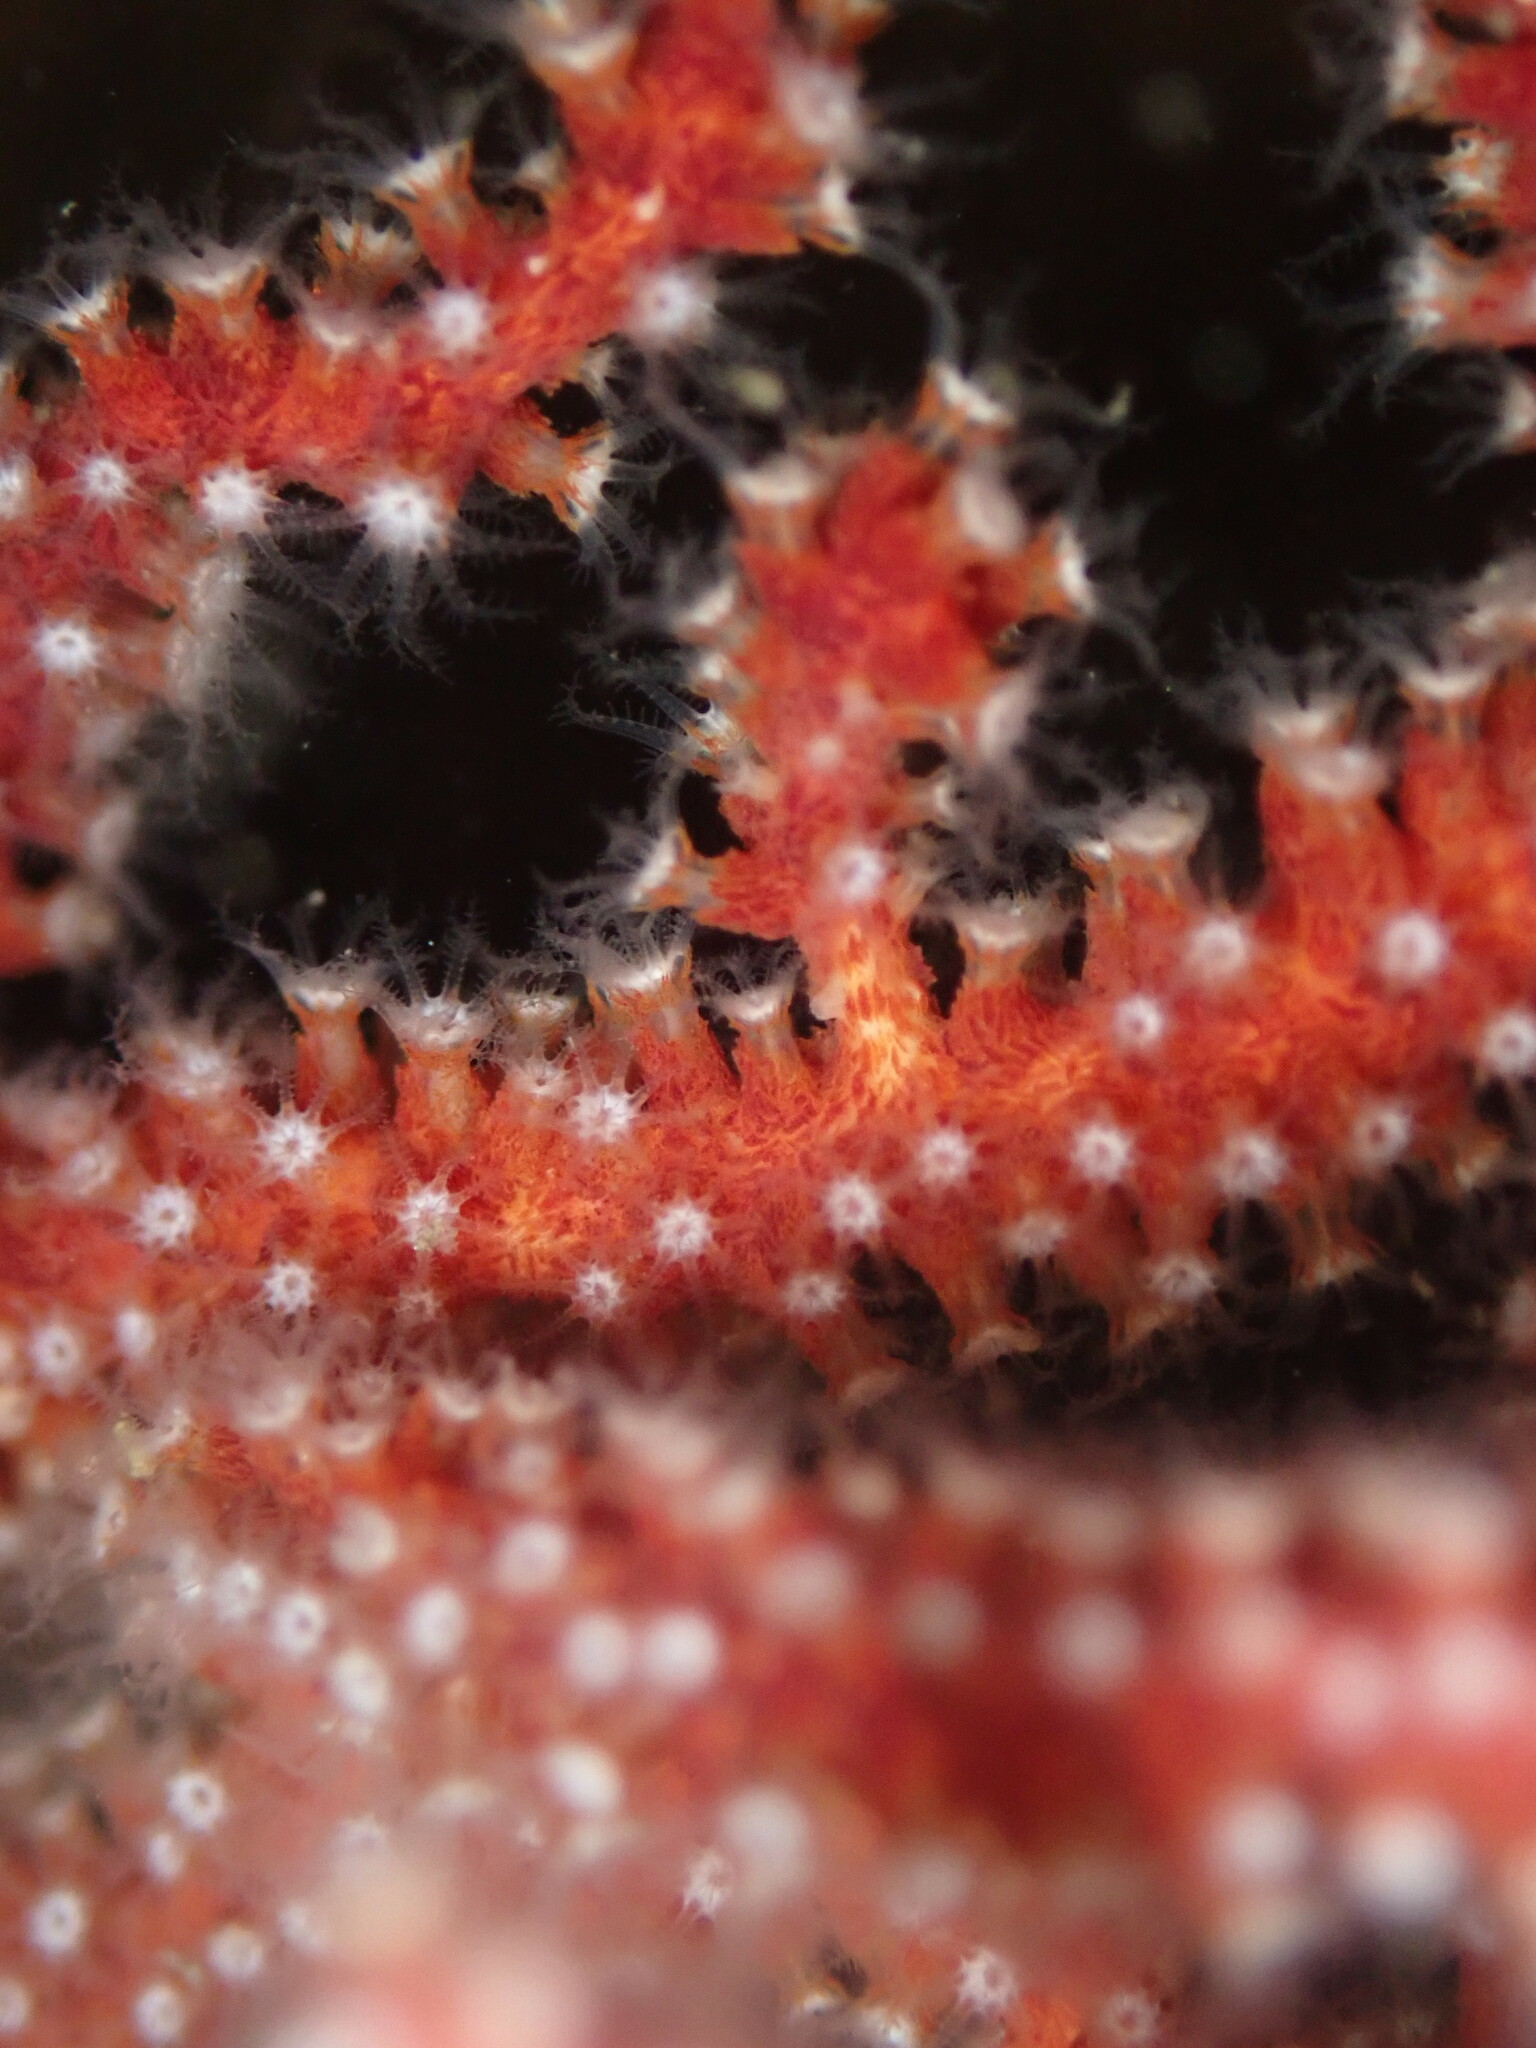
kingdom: Animalia
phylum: Cnidaria
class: Anthozoa
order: Malacalcyonacea
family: Plexauridae
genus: Muricea
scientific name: Muricea fruticosa
